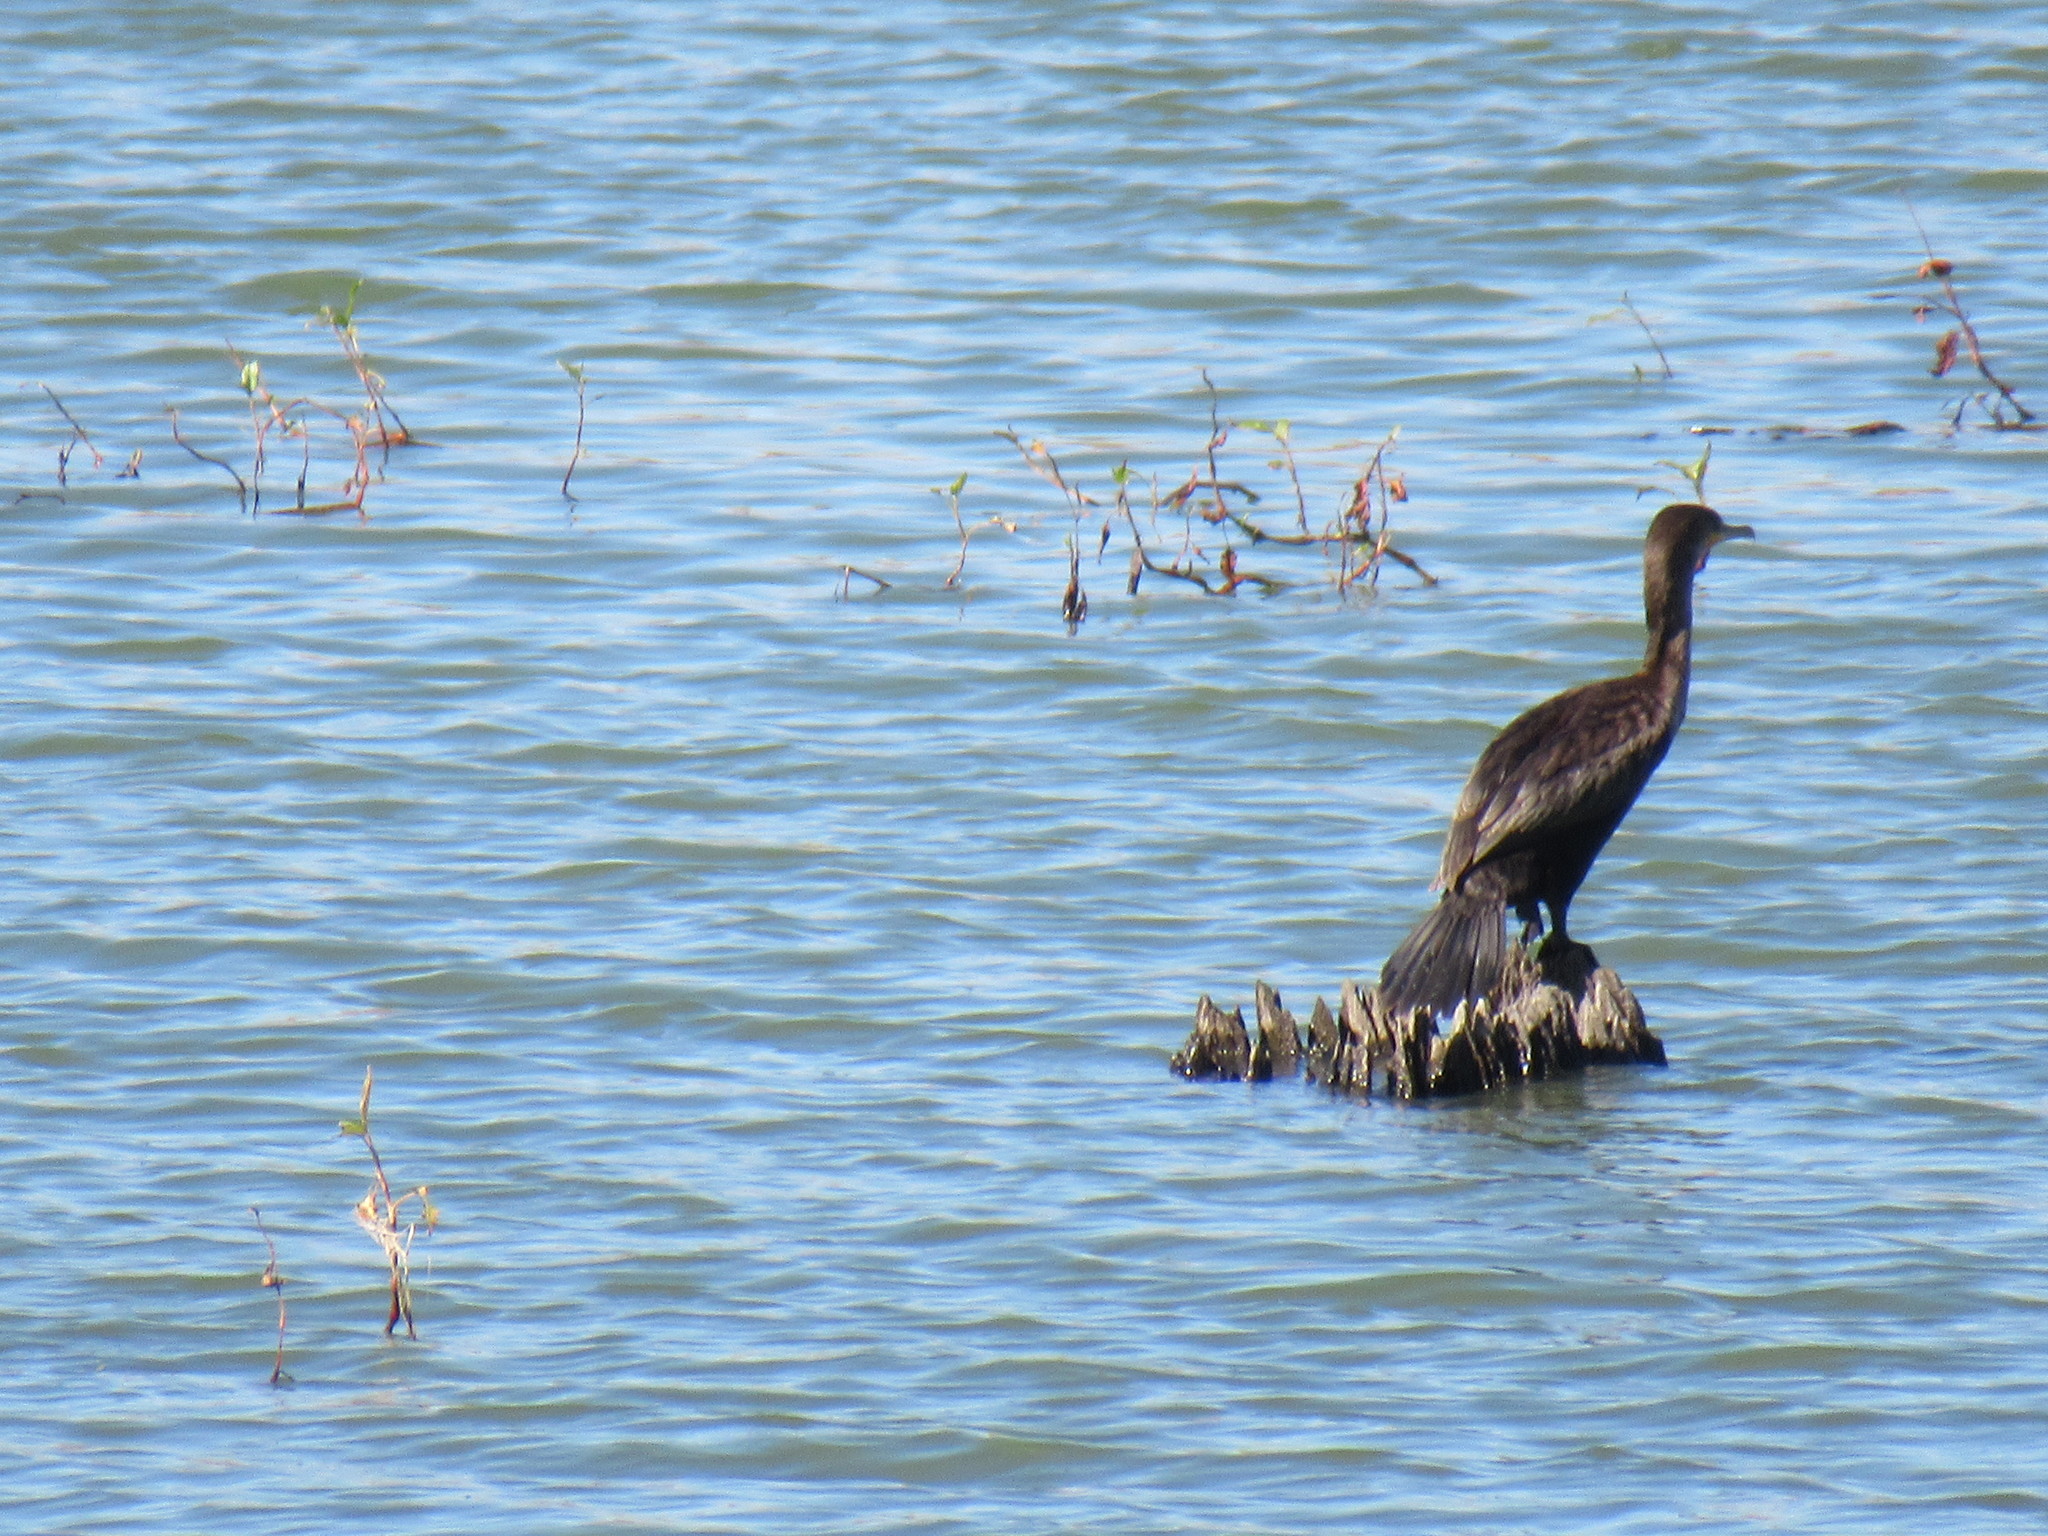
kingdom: Animalia
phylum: Chordata
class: Aves
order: Suliformes
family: Phalacrocoracidae
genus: Phalacrocorax
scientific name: Phalacrocorax auritus
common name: Double-crested cormorant
